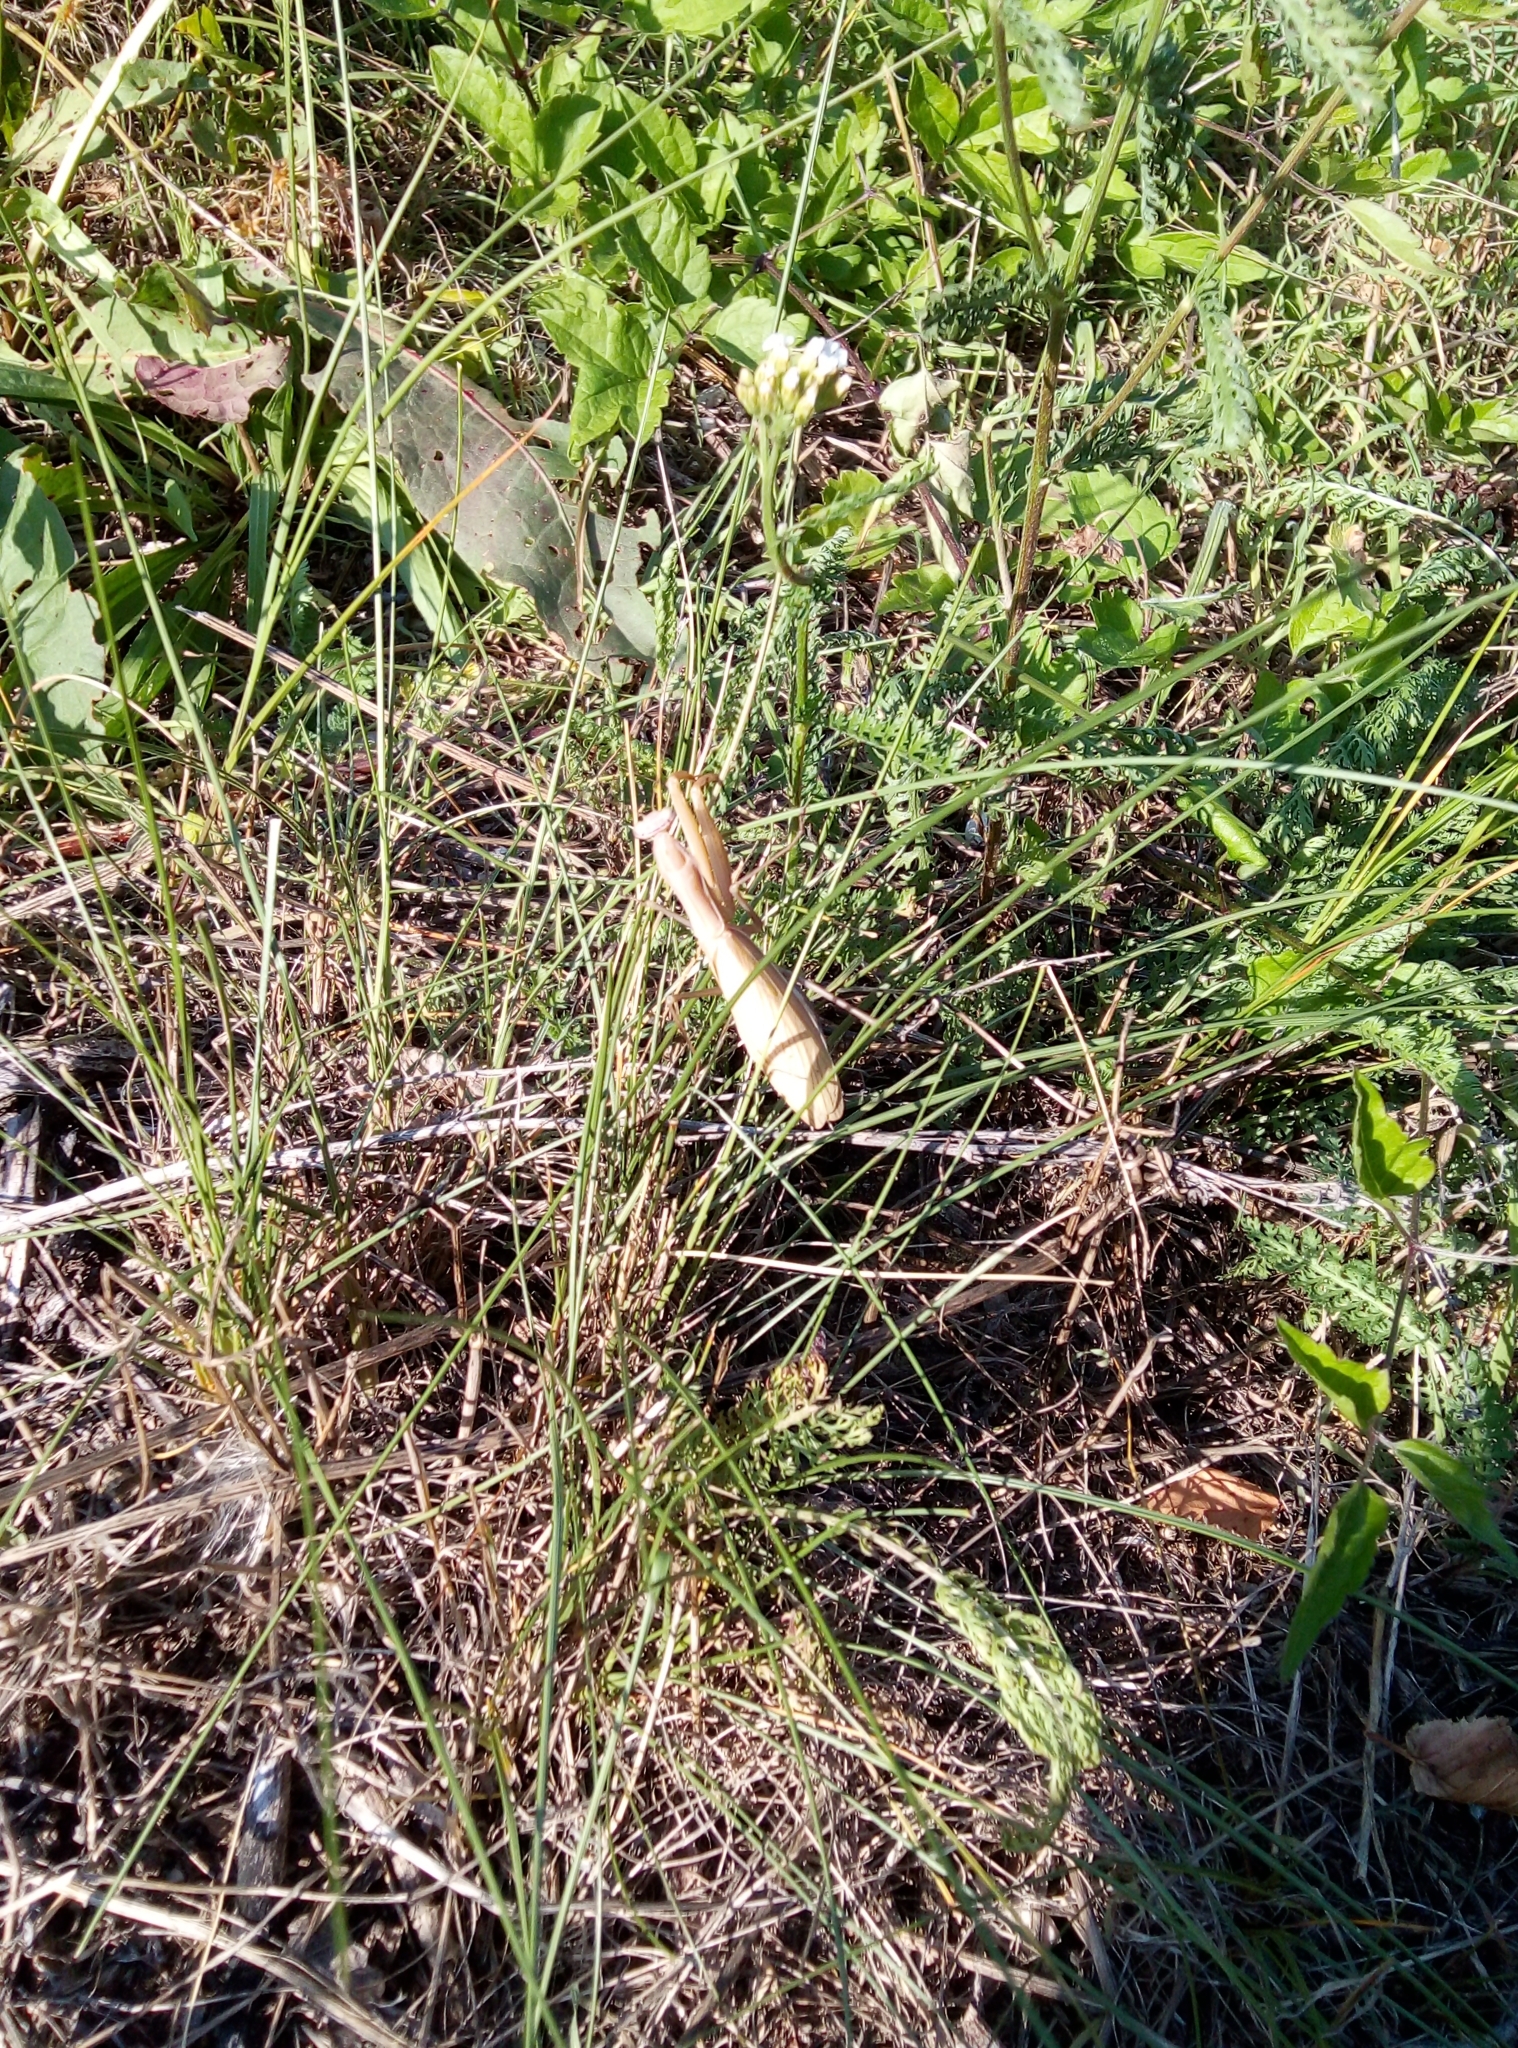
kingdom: Animalia
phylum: Arthropoda
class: Insecta
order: Mantodea
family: Mantidae
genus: Mantis
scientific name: Mantis religiosa
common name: Praying mantis
